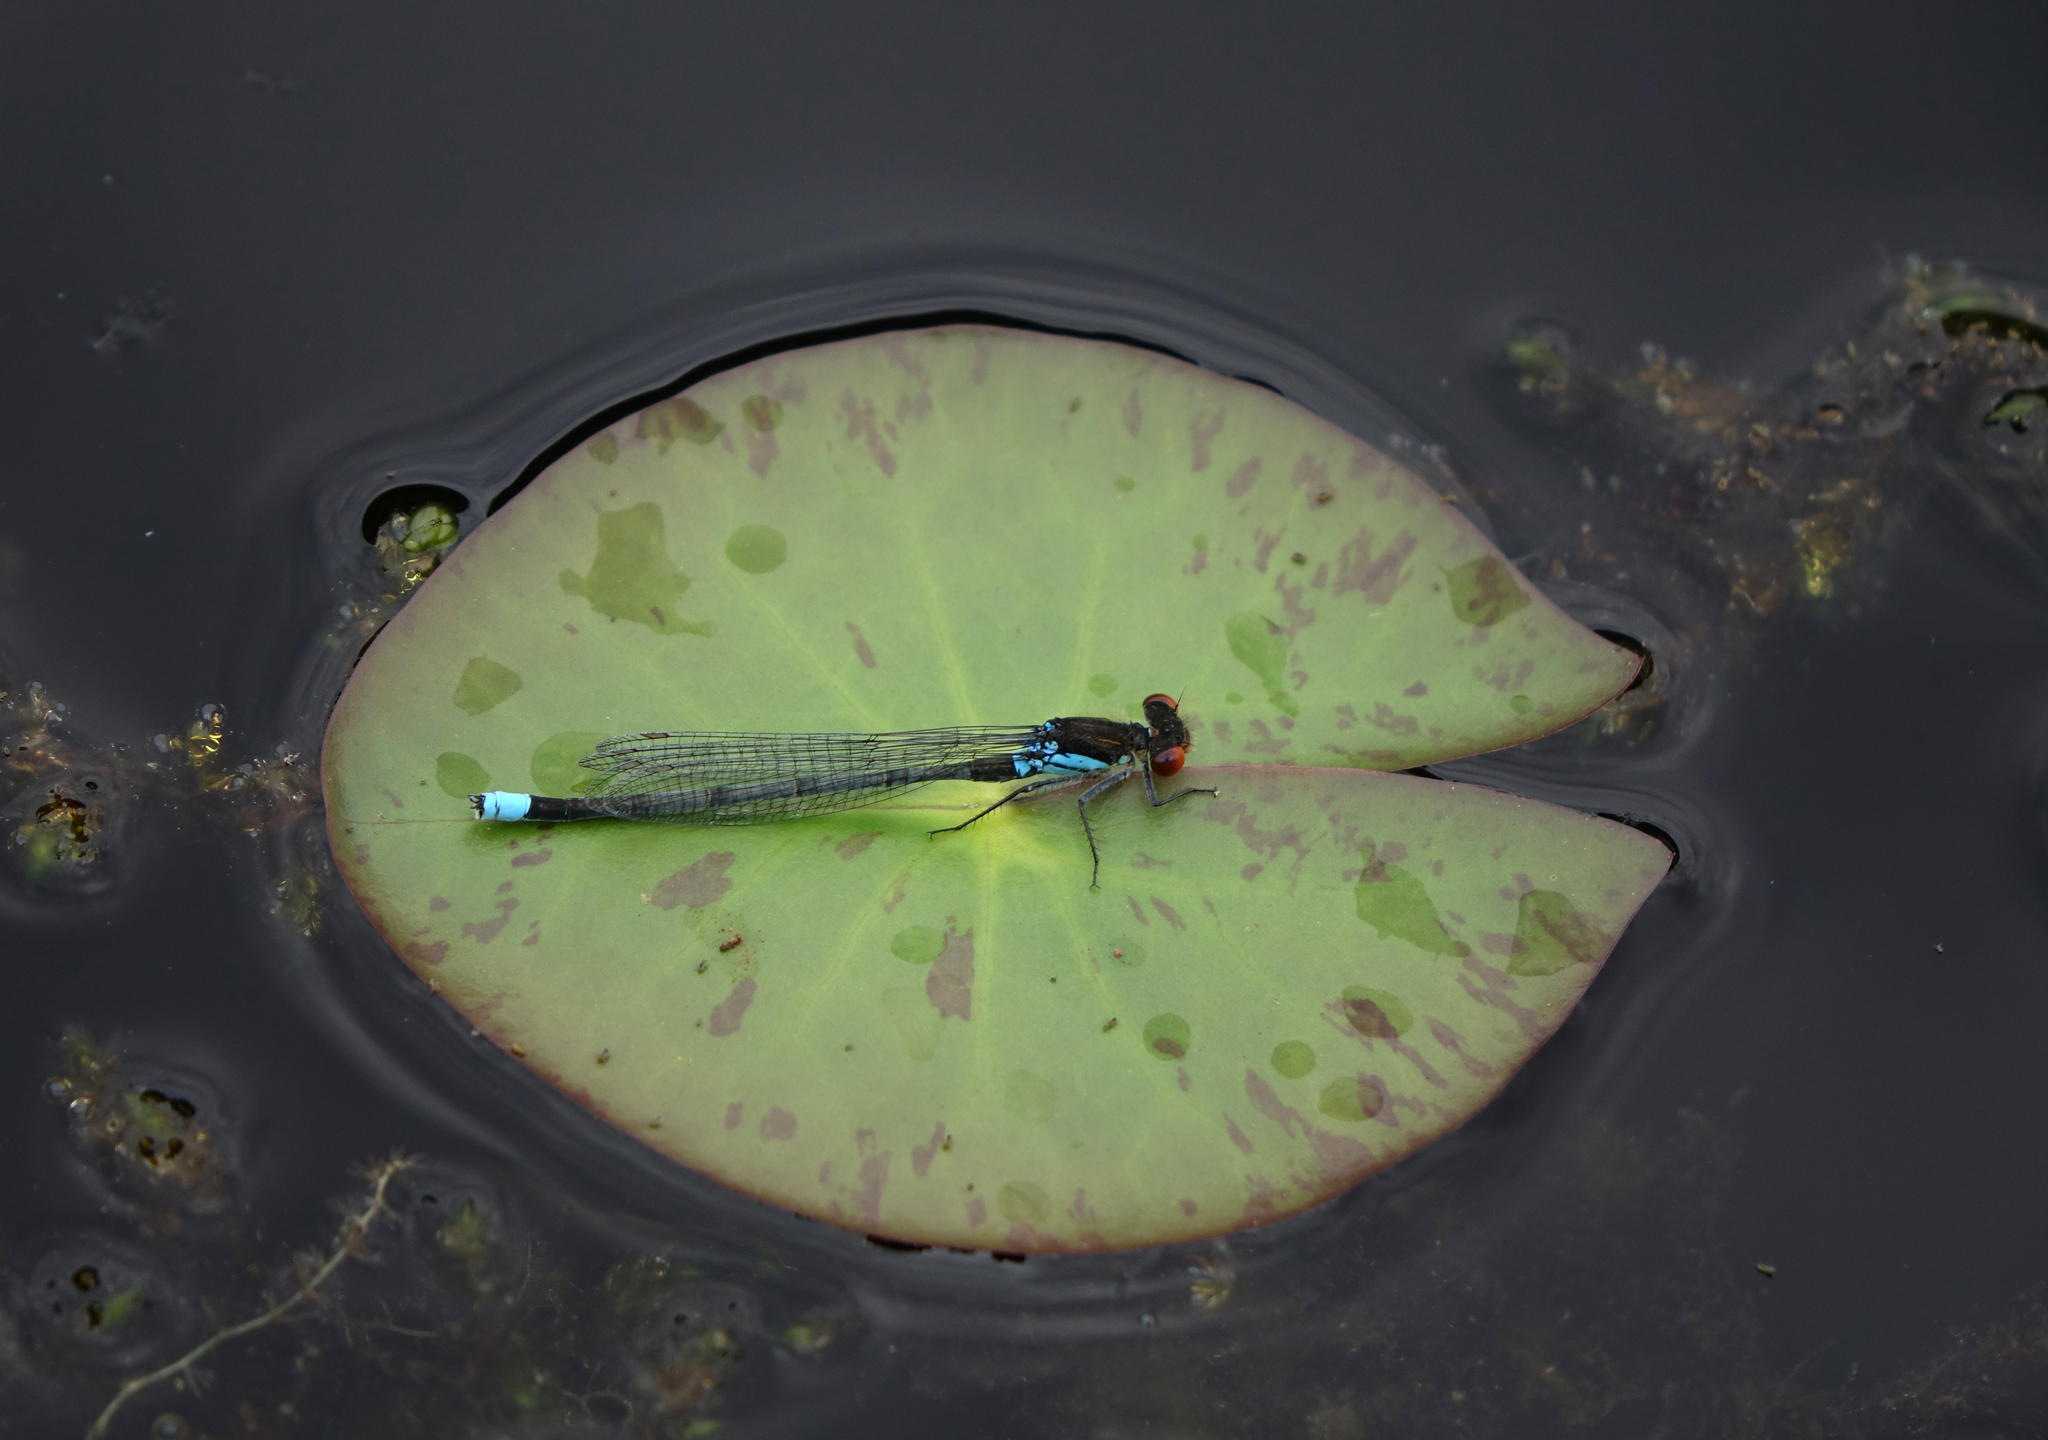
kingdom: Animalia
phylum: Arthropoda
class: Insecta
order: Odonata
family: Coenagrionidae
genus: Erythromma
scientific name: Erythromma najas
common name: Red-eyed damselfly
